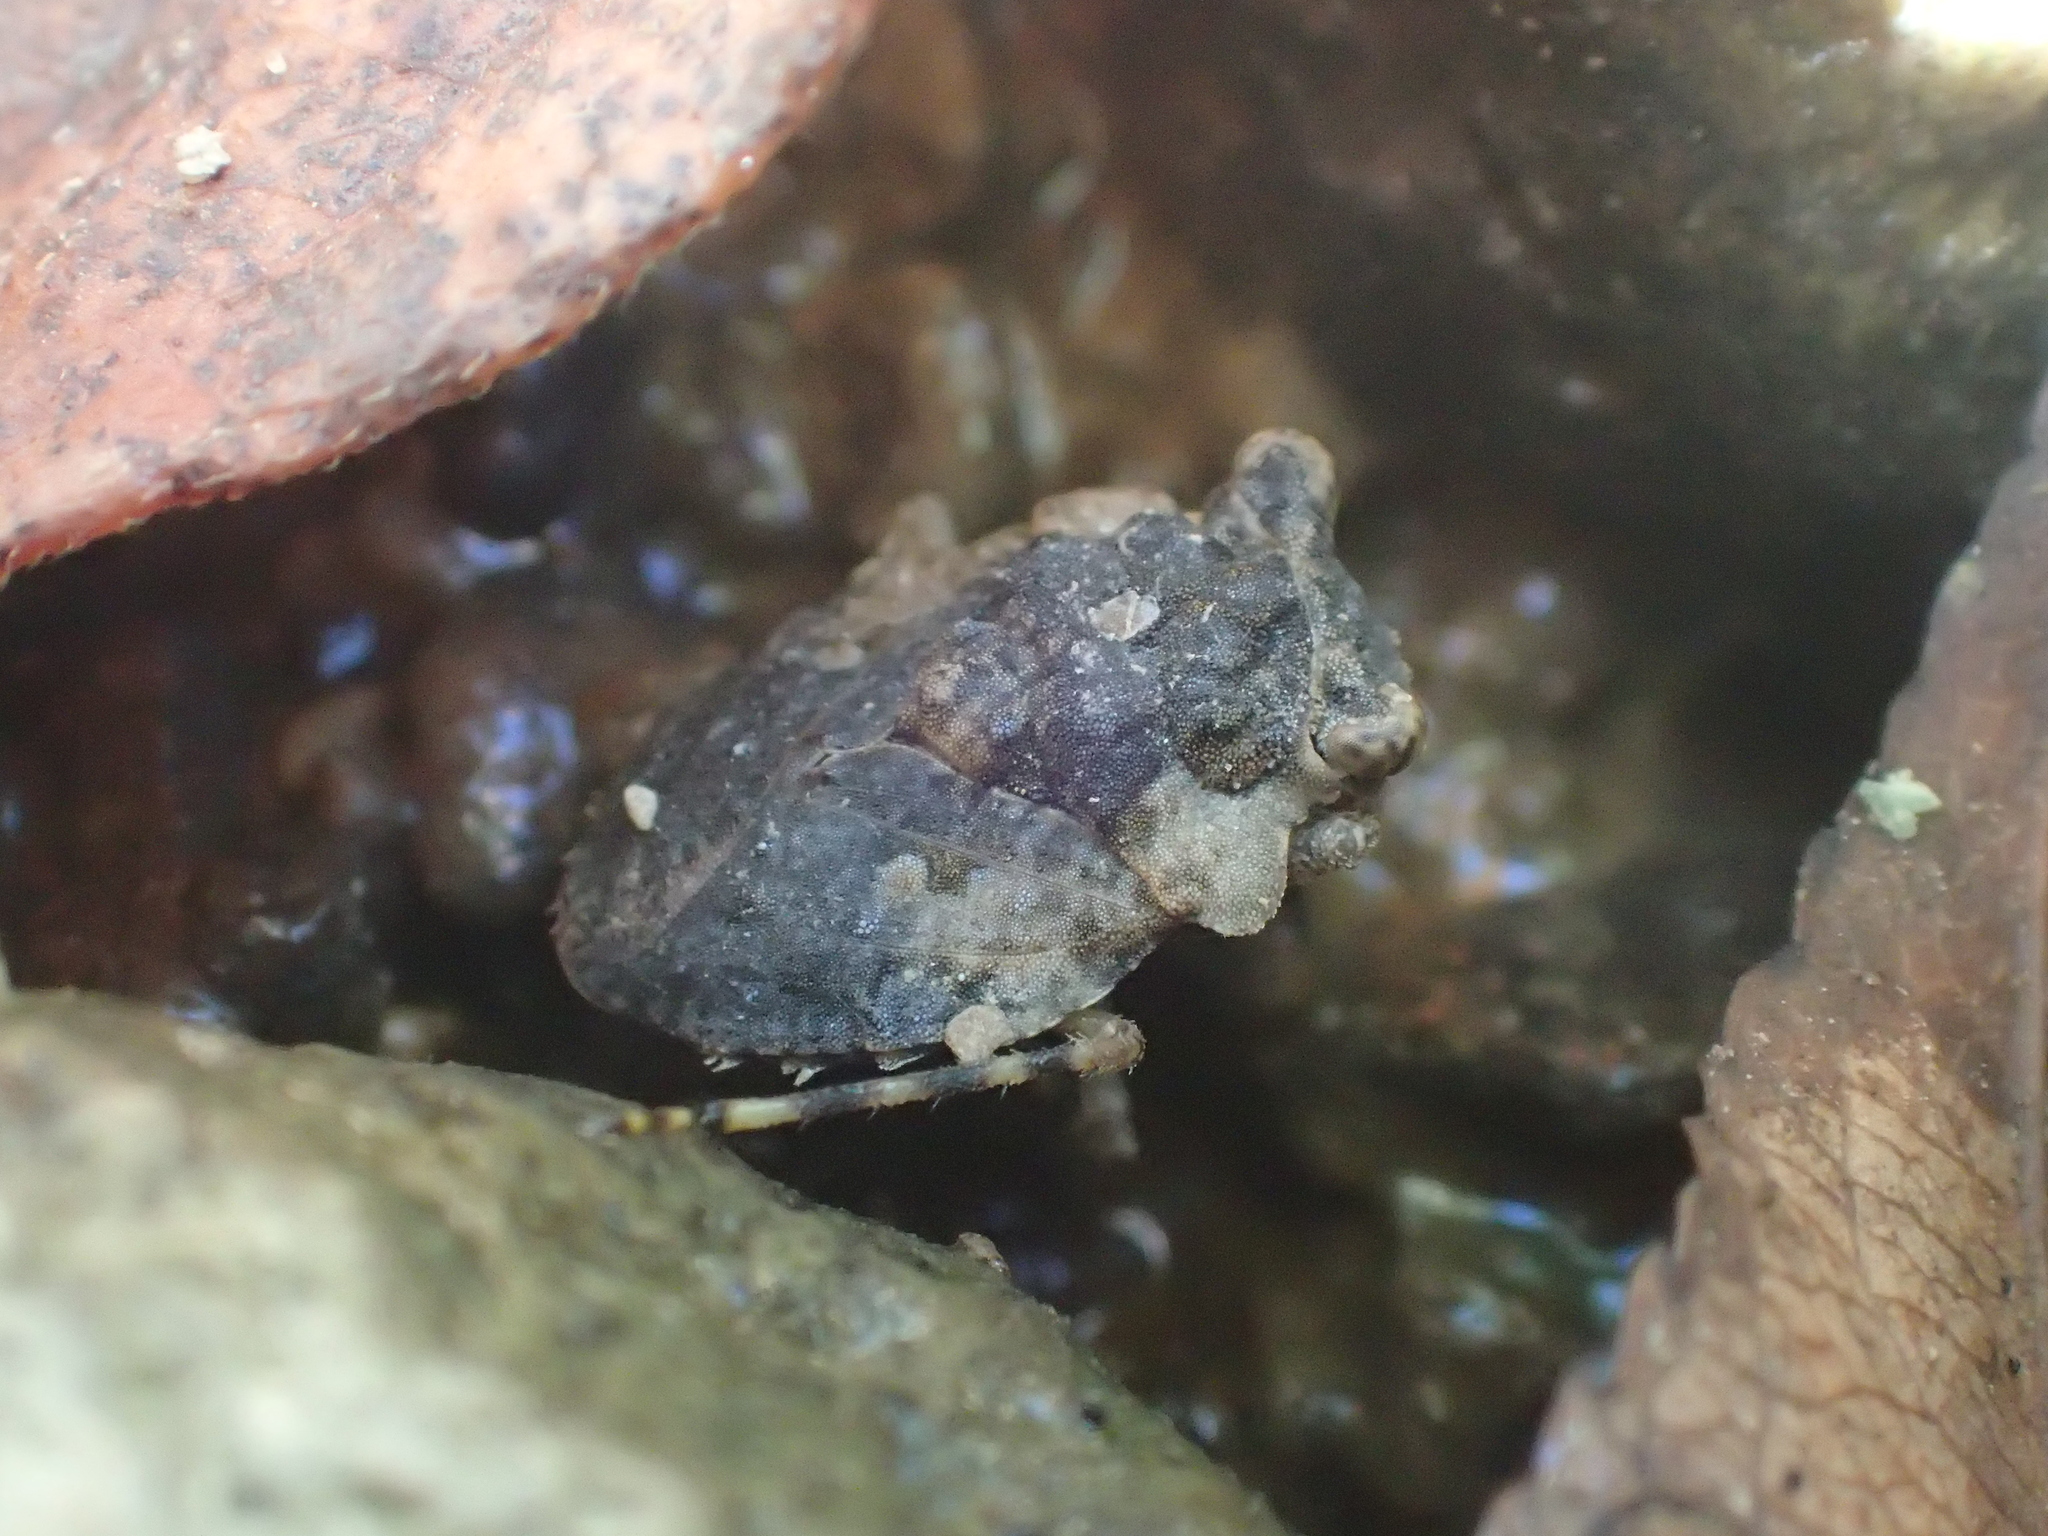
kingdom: Animalia
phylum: Arthropoda
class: Insecta
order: Hemiptera
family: Gelastocoridae
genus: Gelastocoris
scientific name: Gelastocoris oculatus
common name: Toad bug
